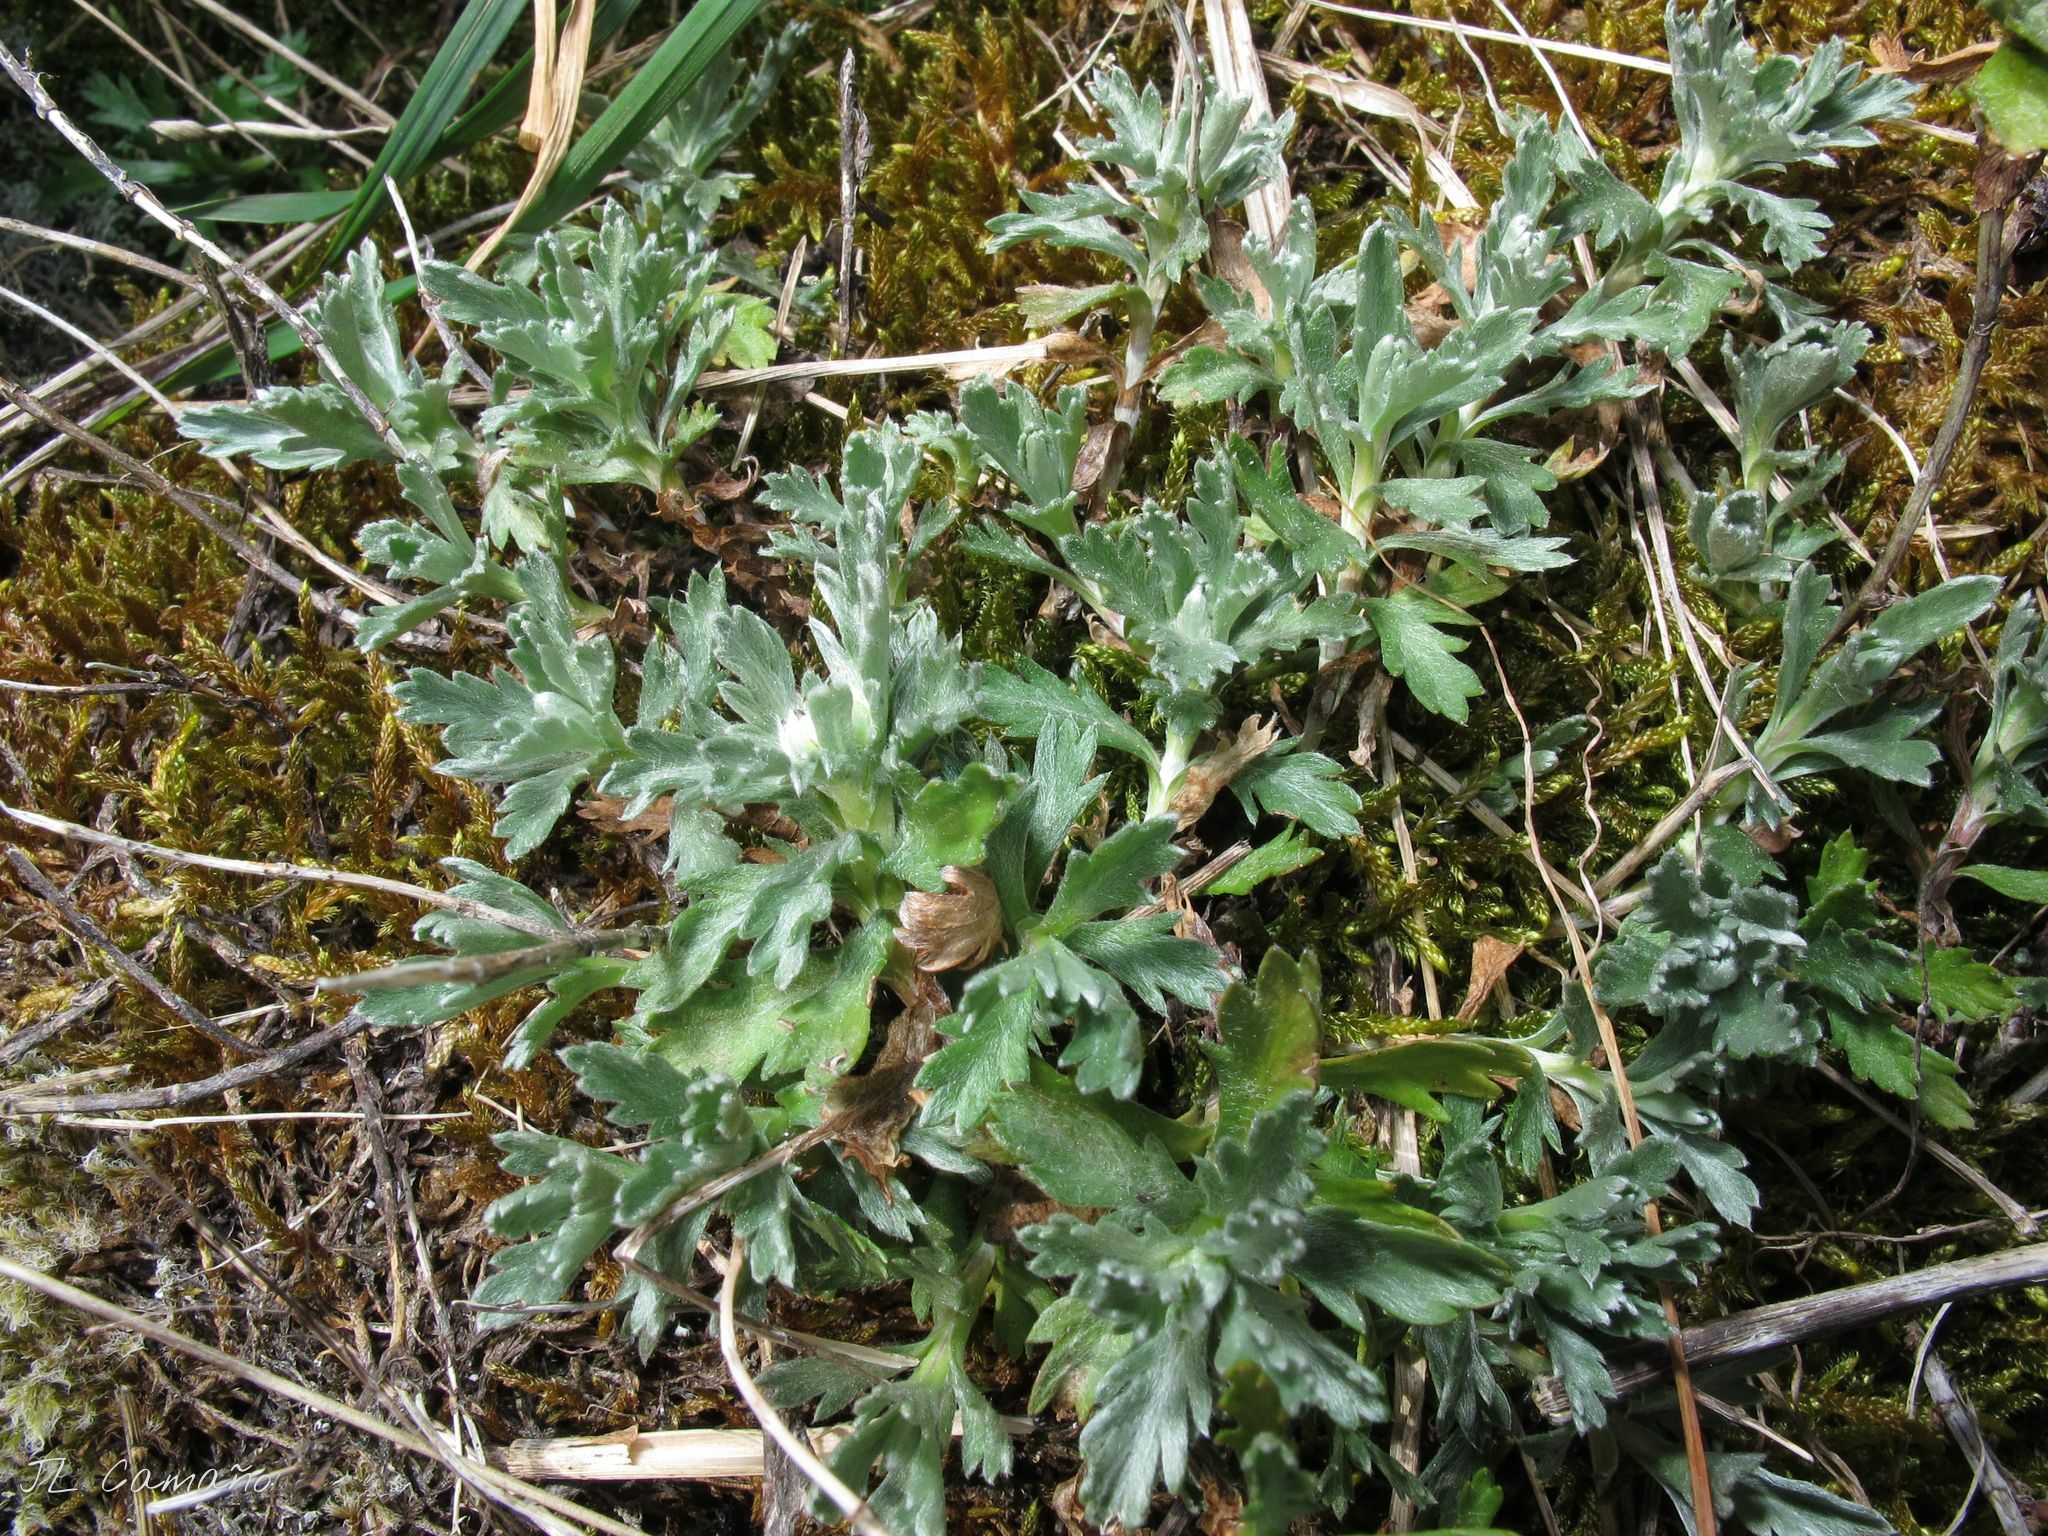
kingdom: Plantae
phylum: Tracheophyta
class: Magnoliopsida
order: Asterales
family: Asteraceae
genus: Phalacrocarpum
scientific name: Phalacrocarpum oppositifolium
